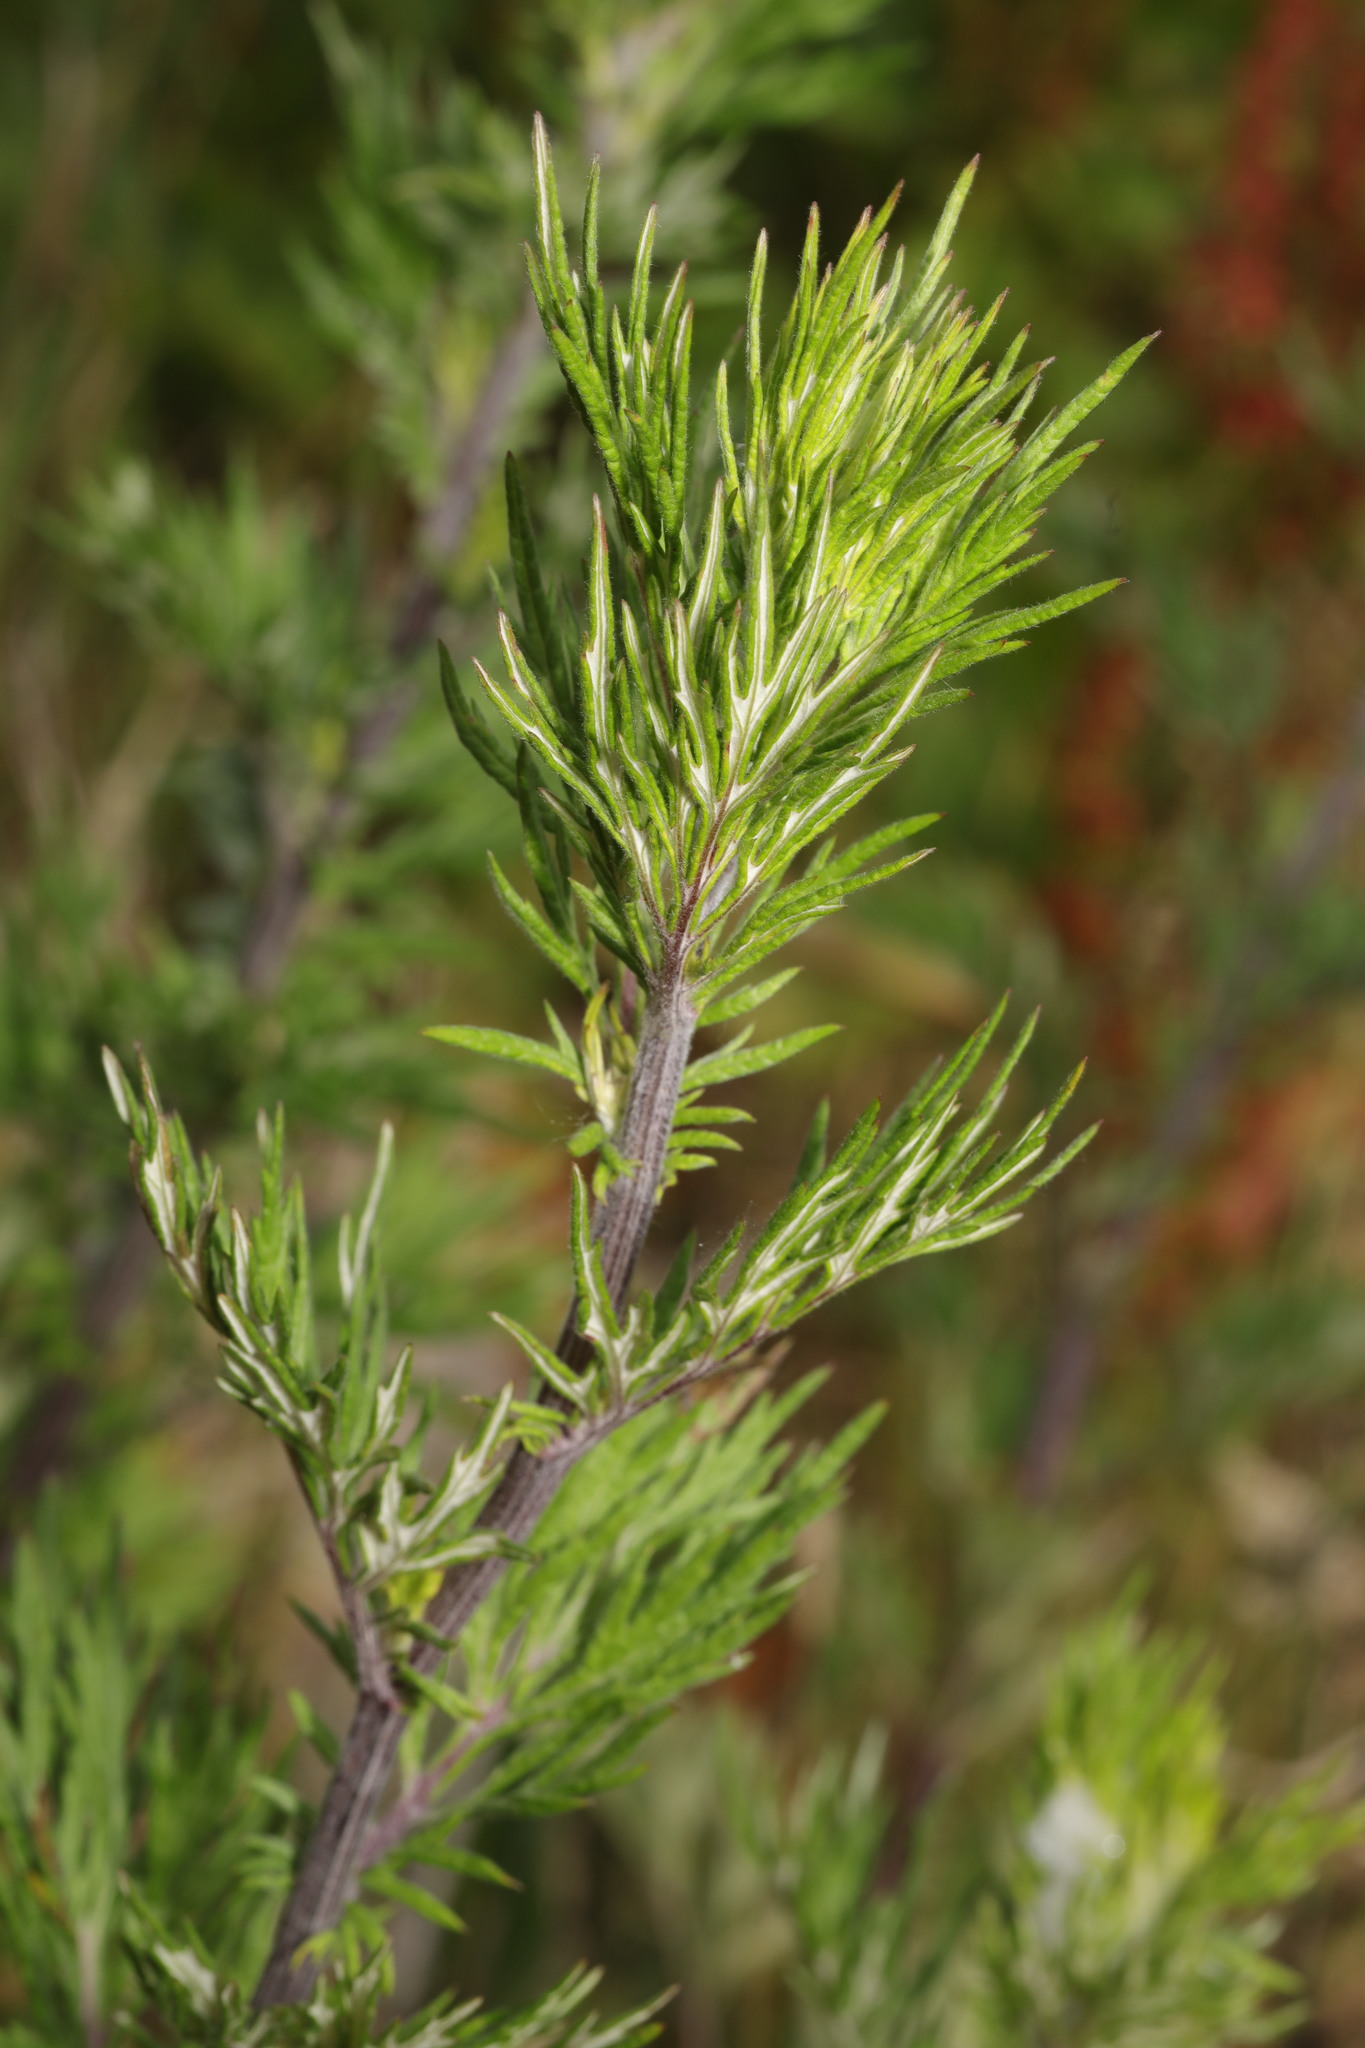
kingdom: Plantae
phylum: Tracheophyta
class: Magnoliopsida
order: Asterales
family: Asteraceae
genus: Artemisia
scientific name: Artemisia vulgaris
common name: Mugwort
